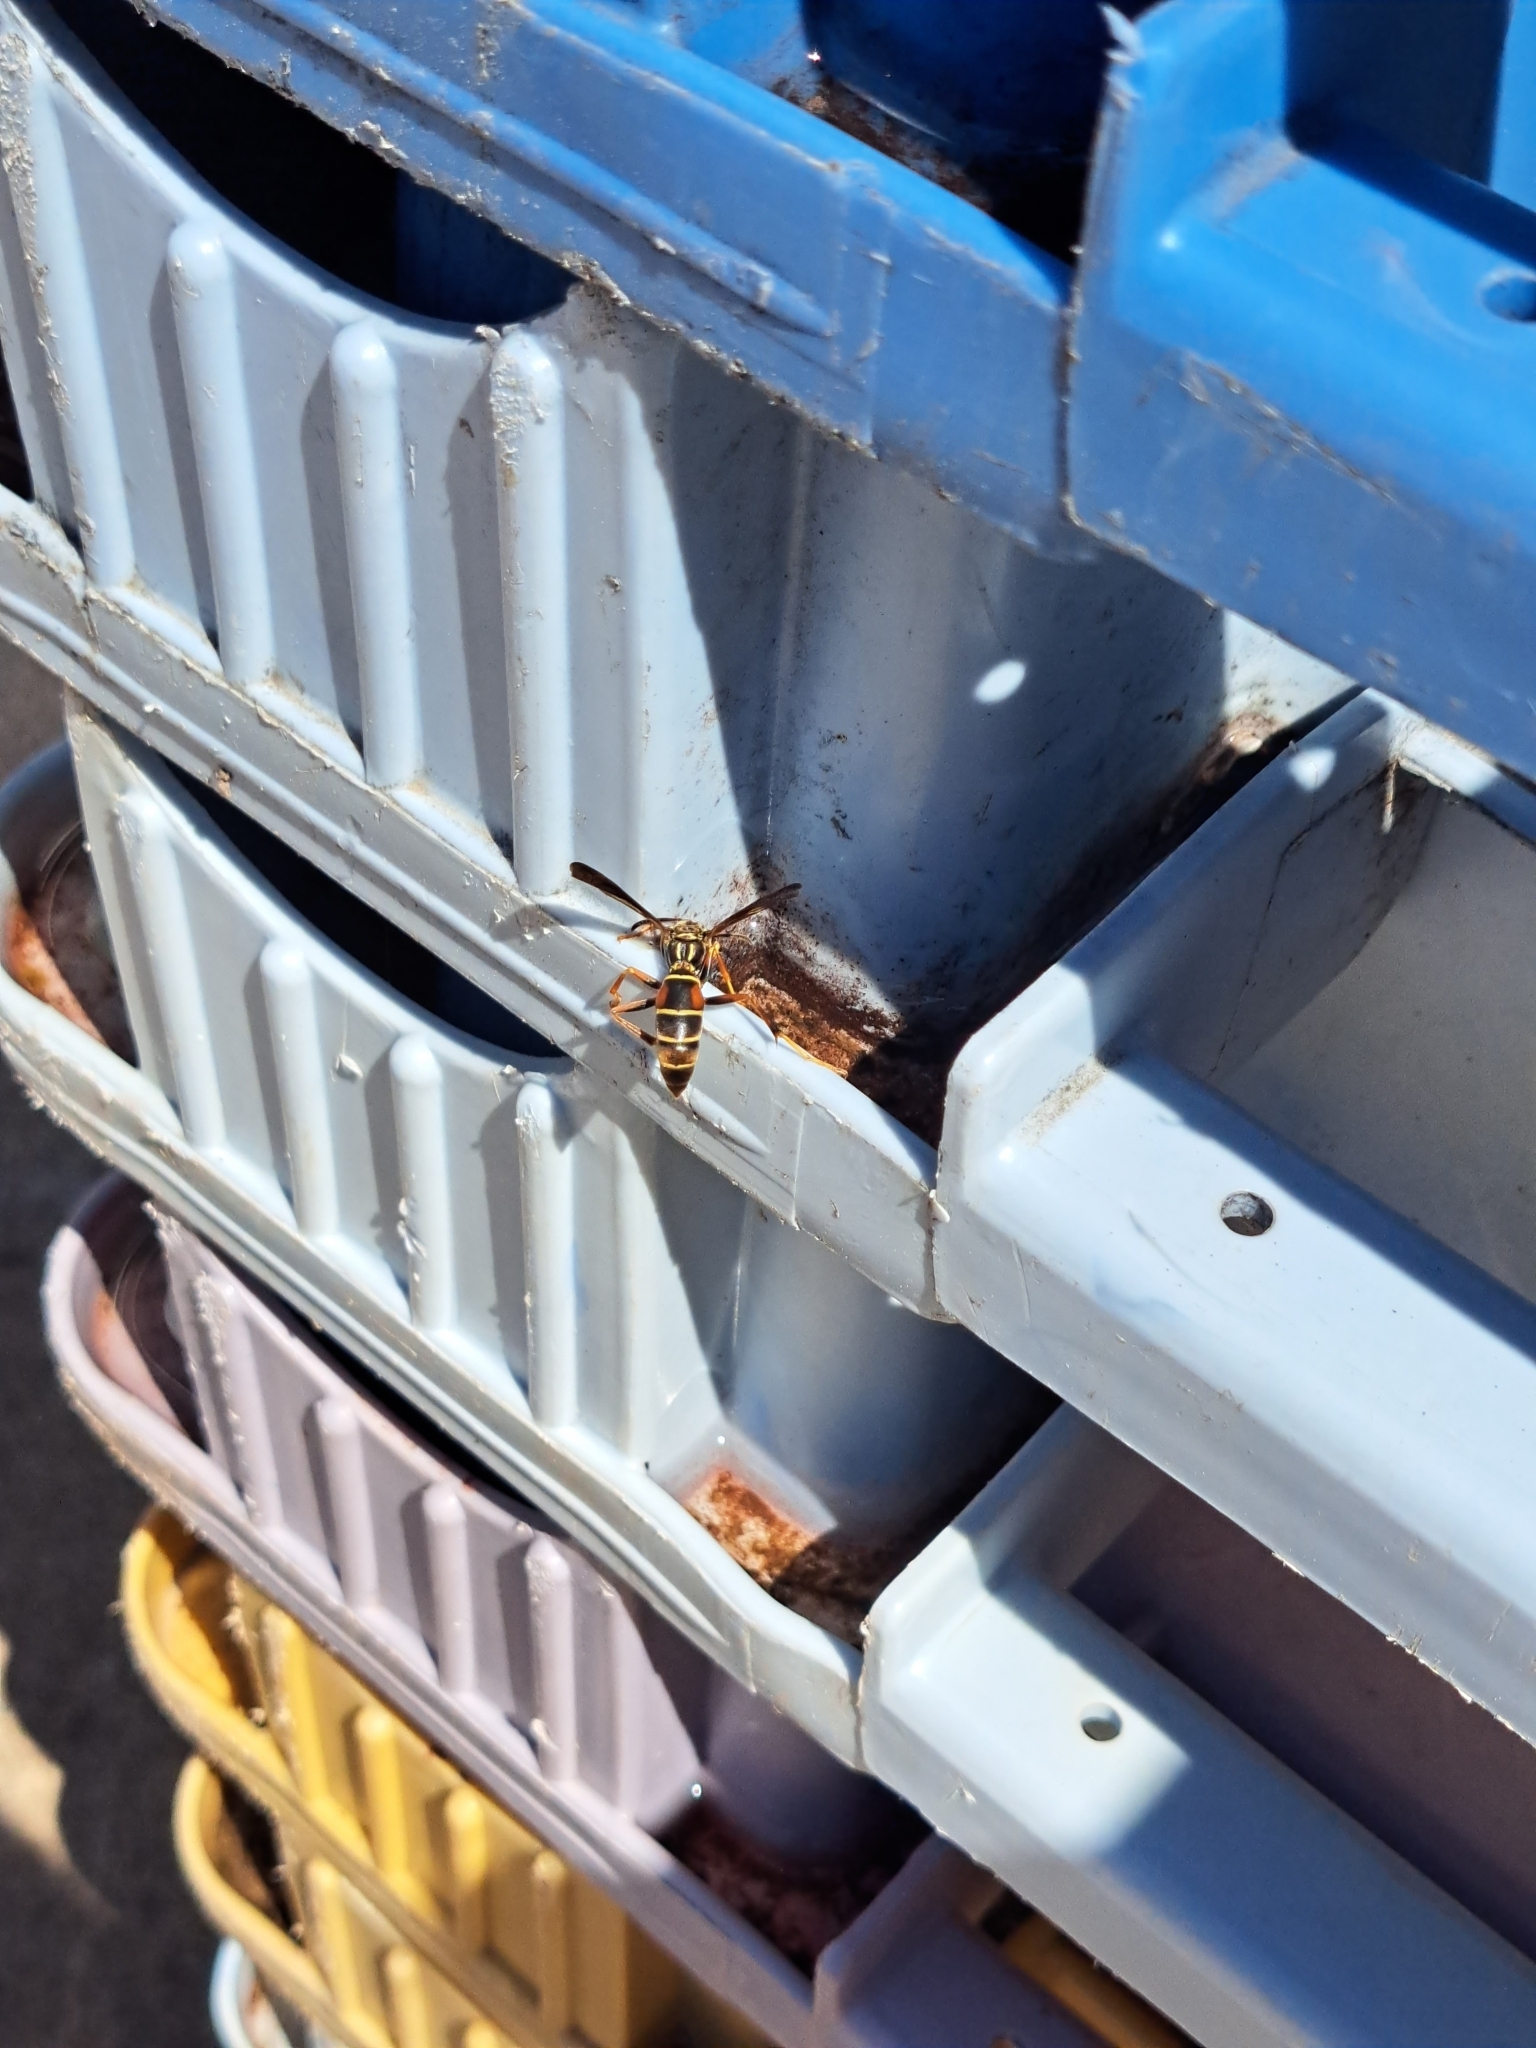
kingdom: Animalia
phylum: Arthropoda
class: Insecta
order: Hymenoptera
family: Eumenidae
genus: Polistes
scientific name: Polistes fuscatus
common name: Dark paper wasp
